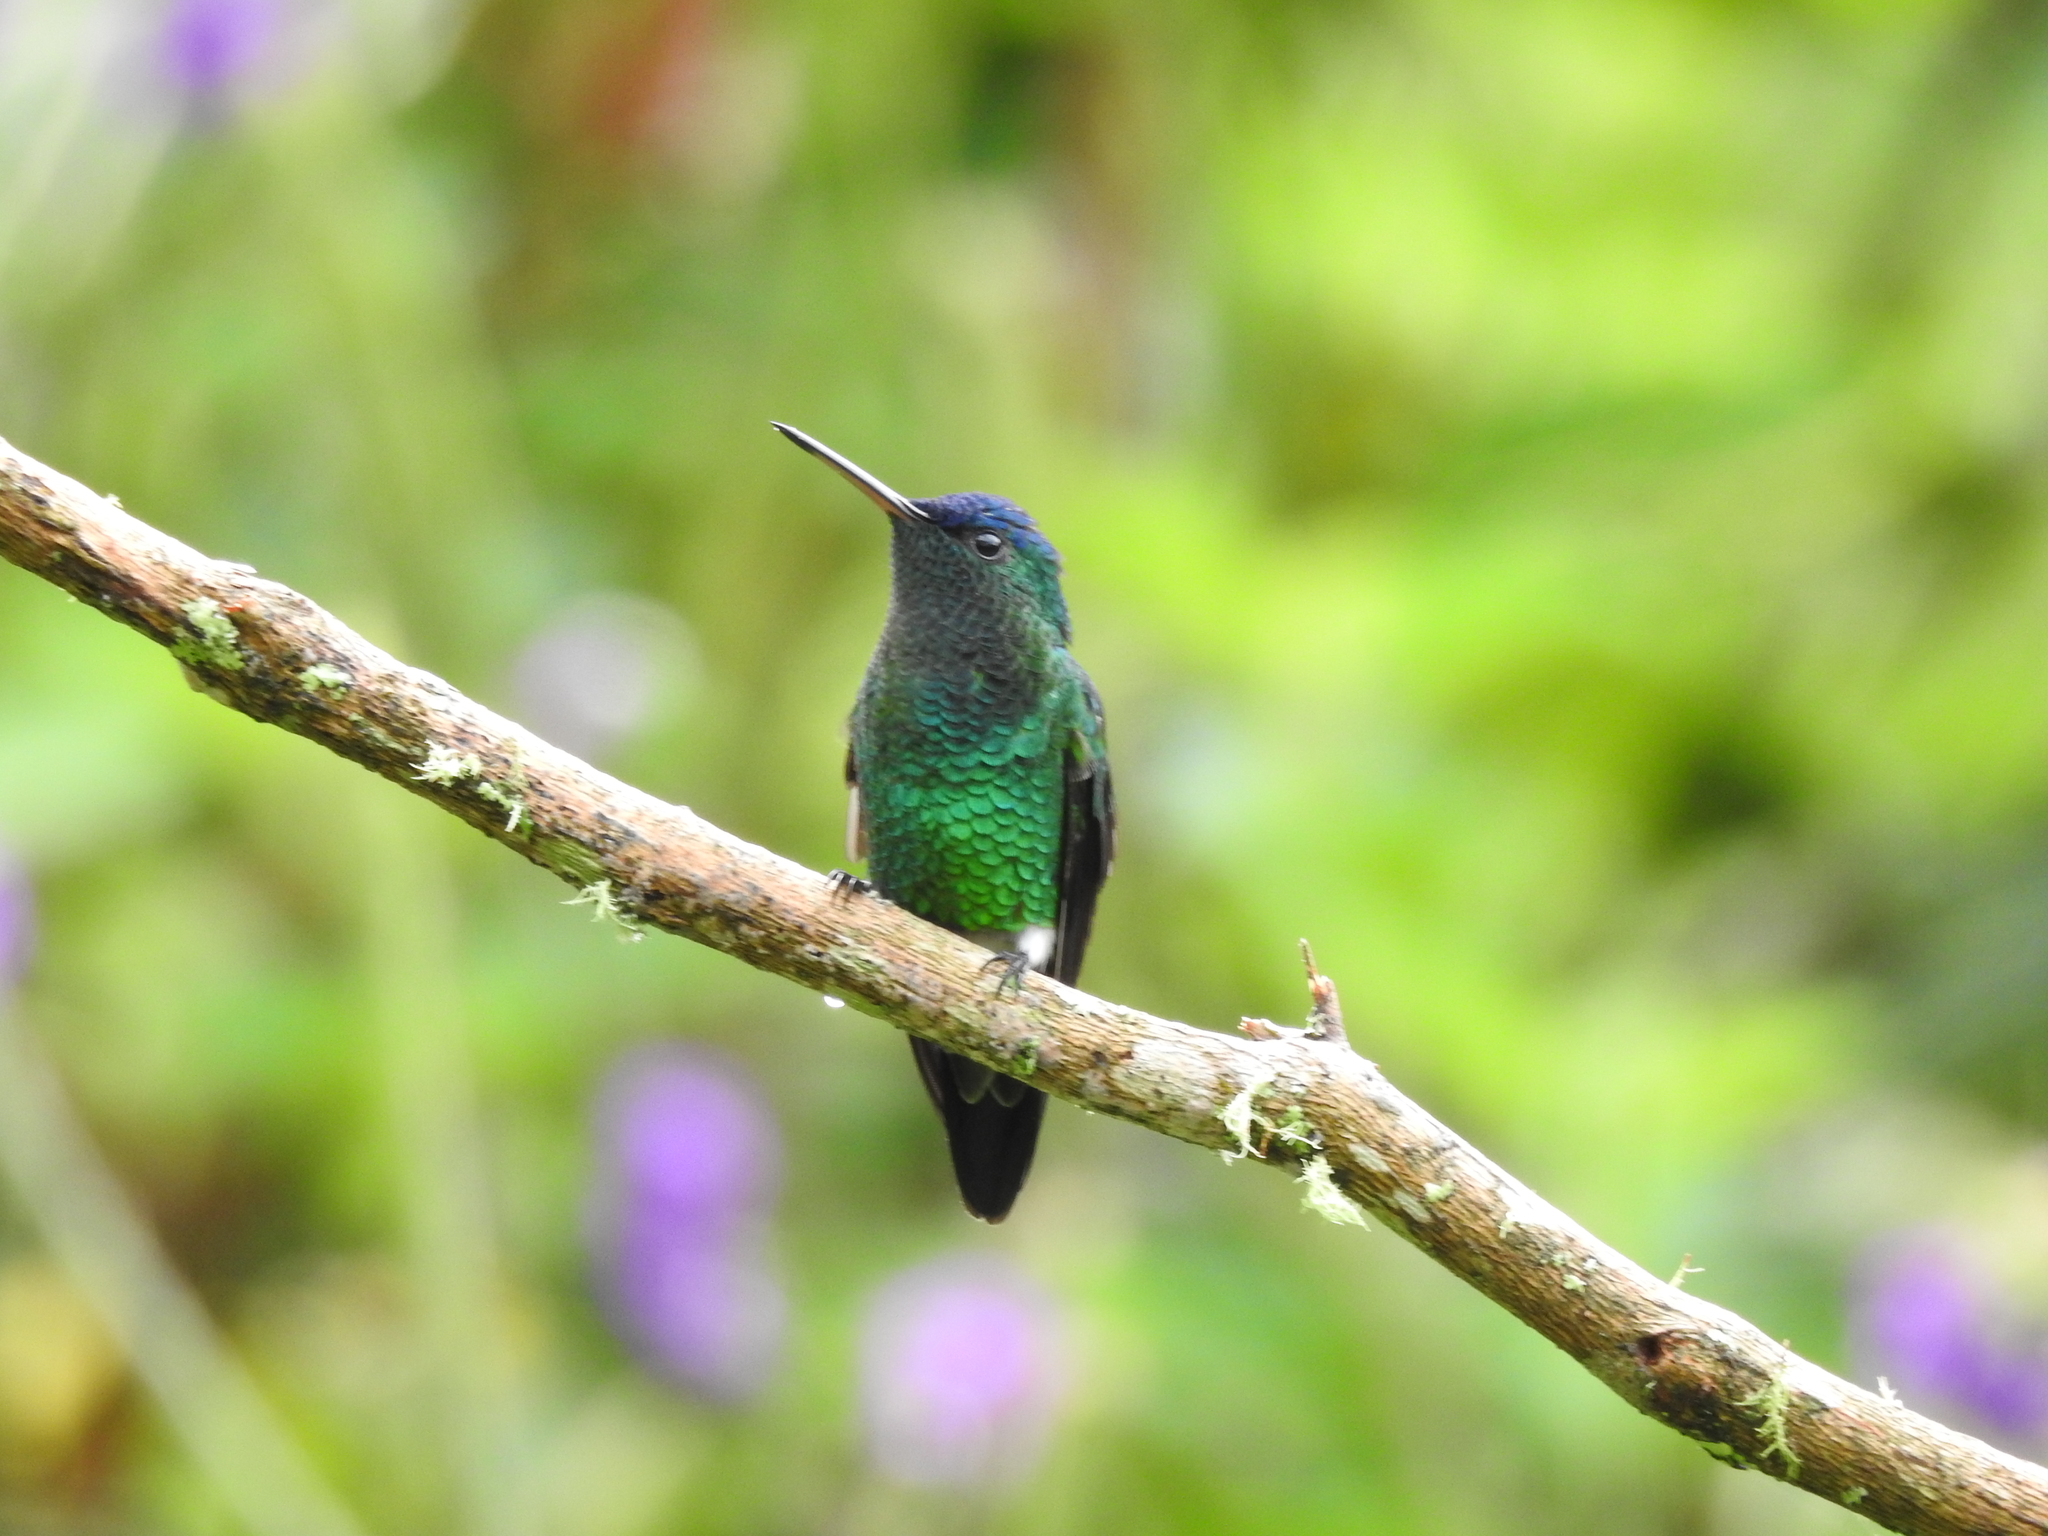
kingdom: Animalia
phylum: Chordata
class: Aves
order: Apodiformes
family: Trochilidae
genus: Saucerottia
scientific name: Saucerottia cyanifrons
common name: Indigo-capped hummingbird
